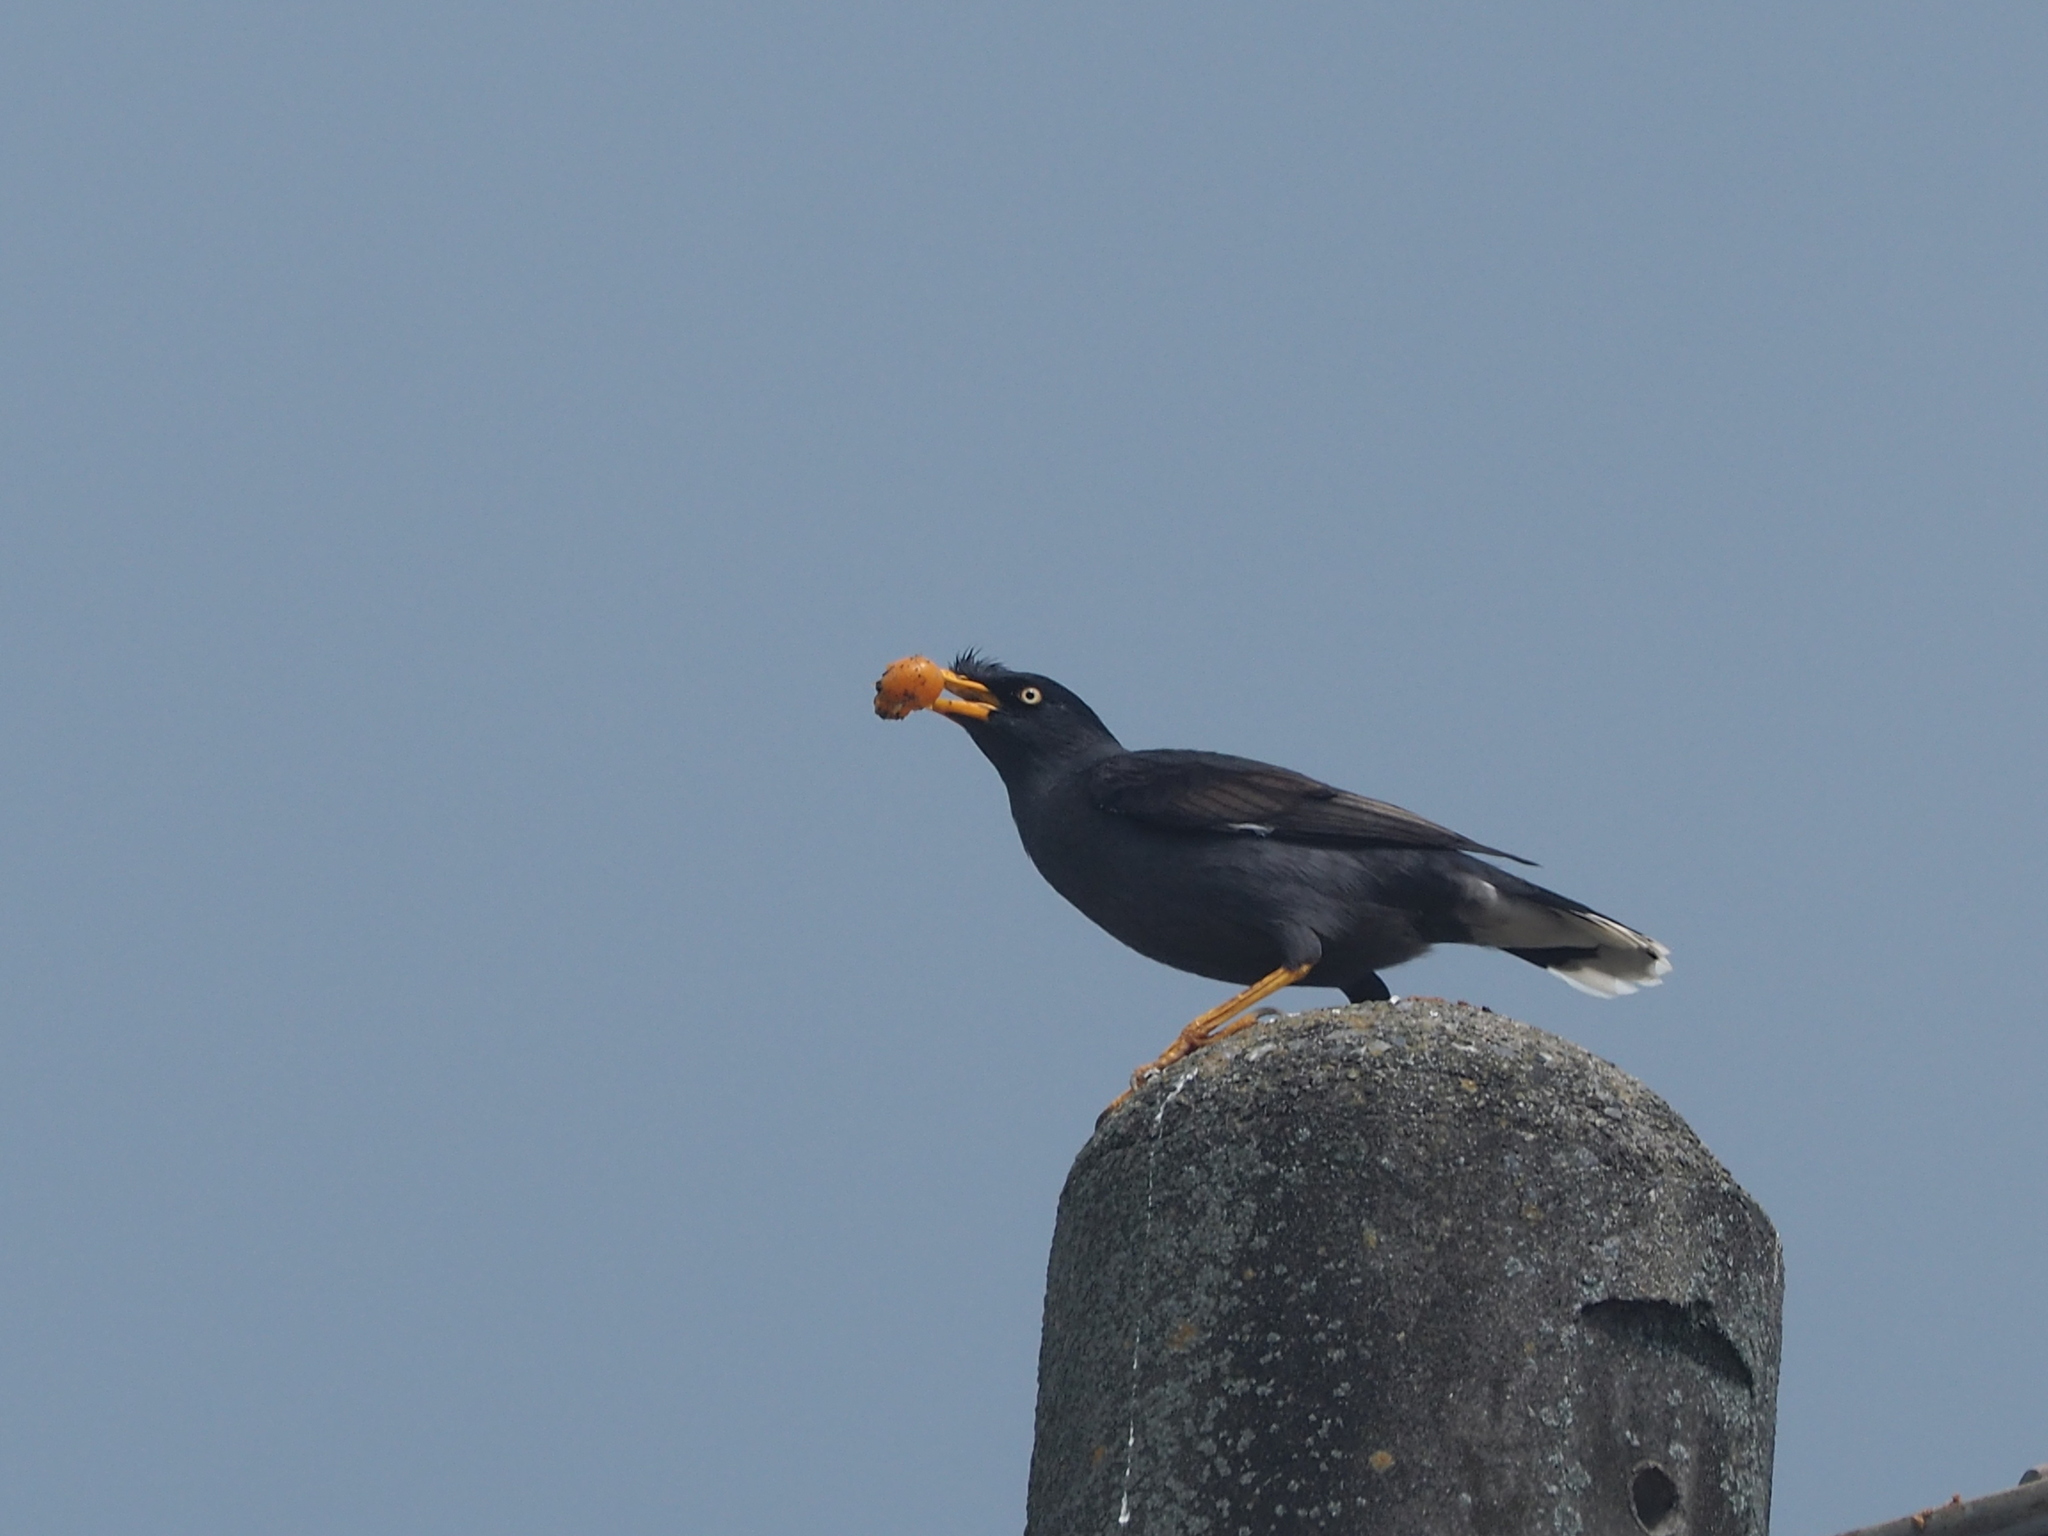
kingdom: Animalia
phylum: Chordata
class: Aves
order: Passeriformes
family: Sturnidae
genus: Acridotheres
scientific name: Acridotheres javanicus
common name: Javan myna
